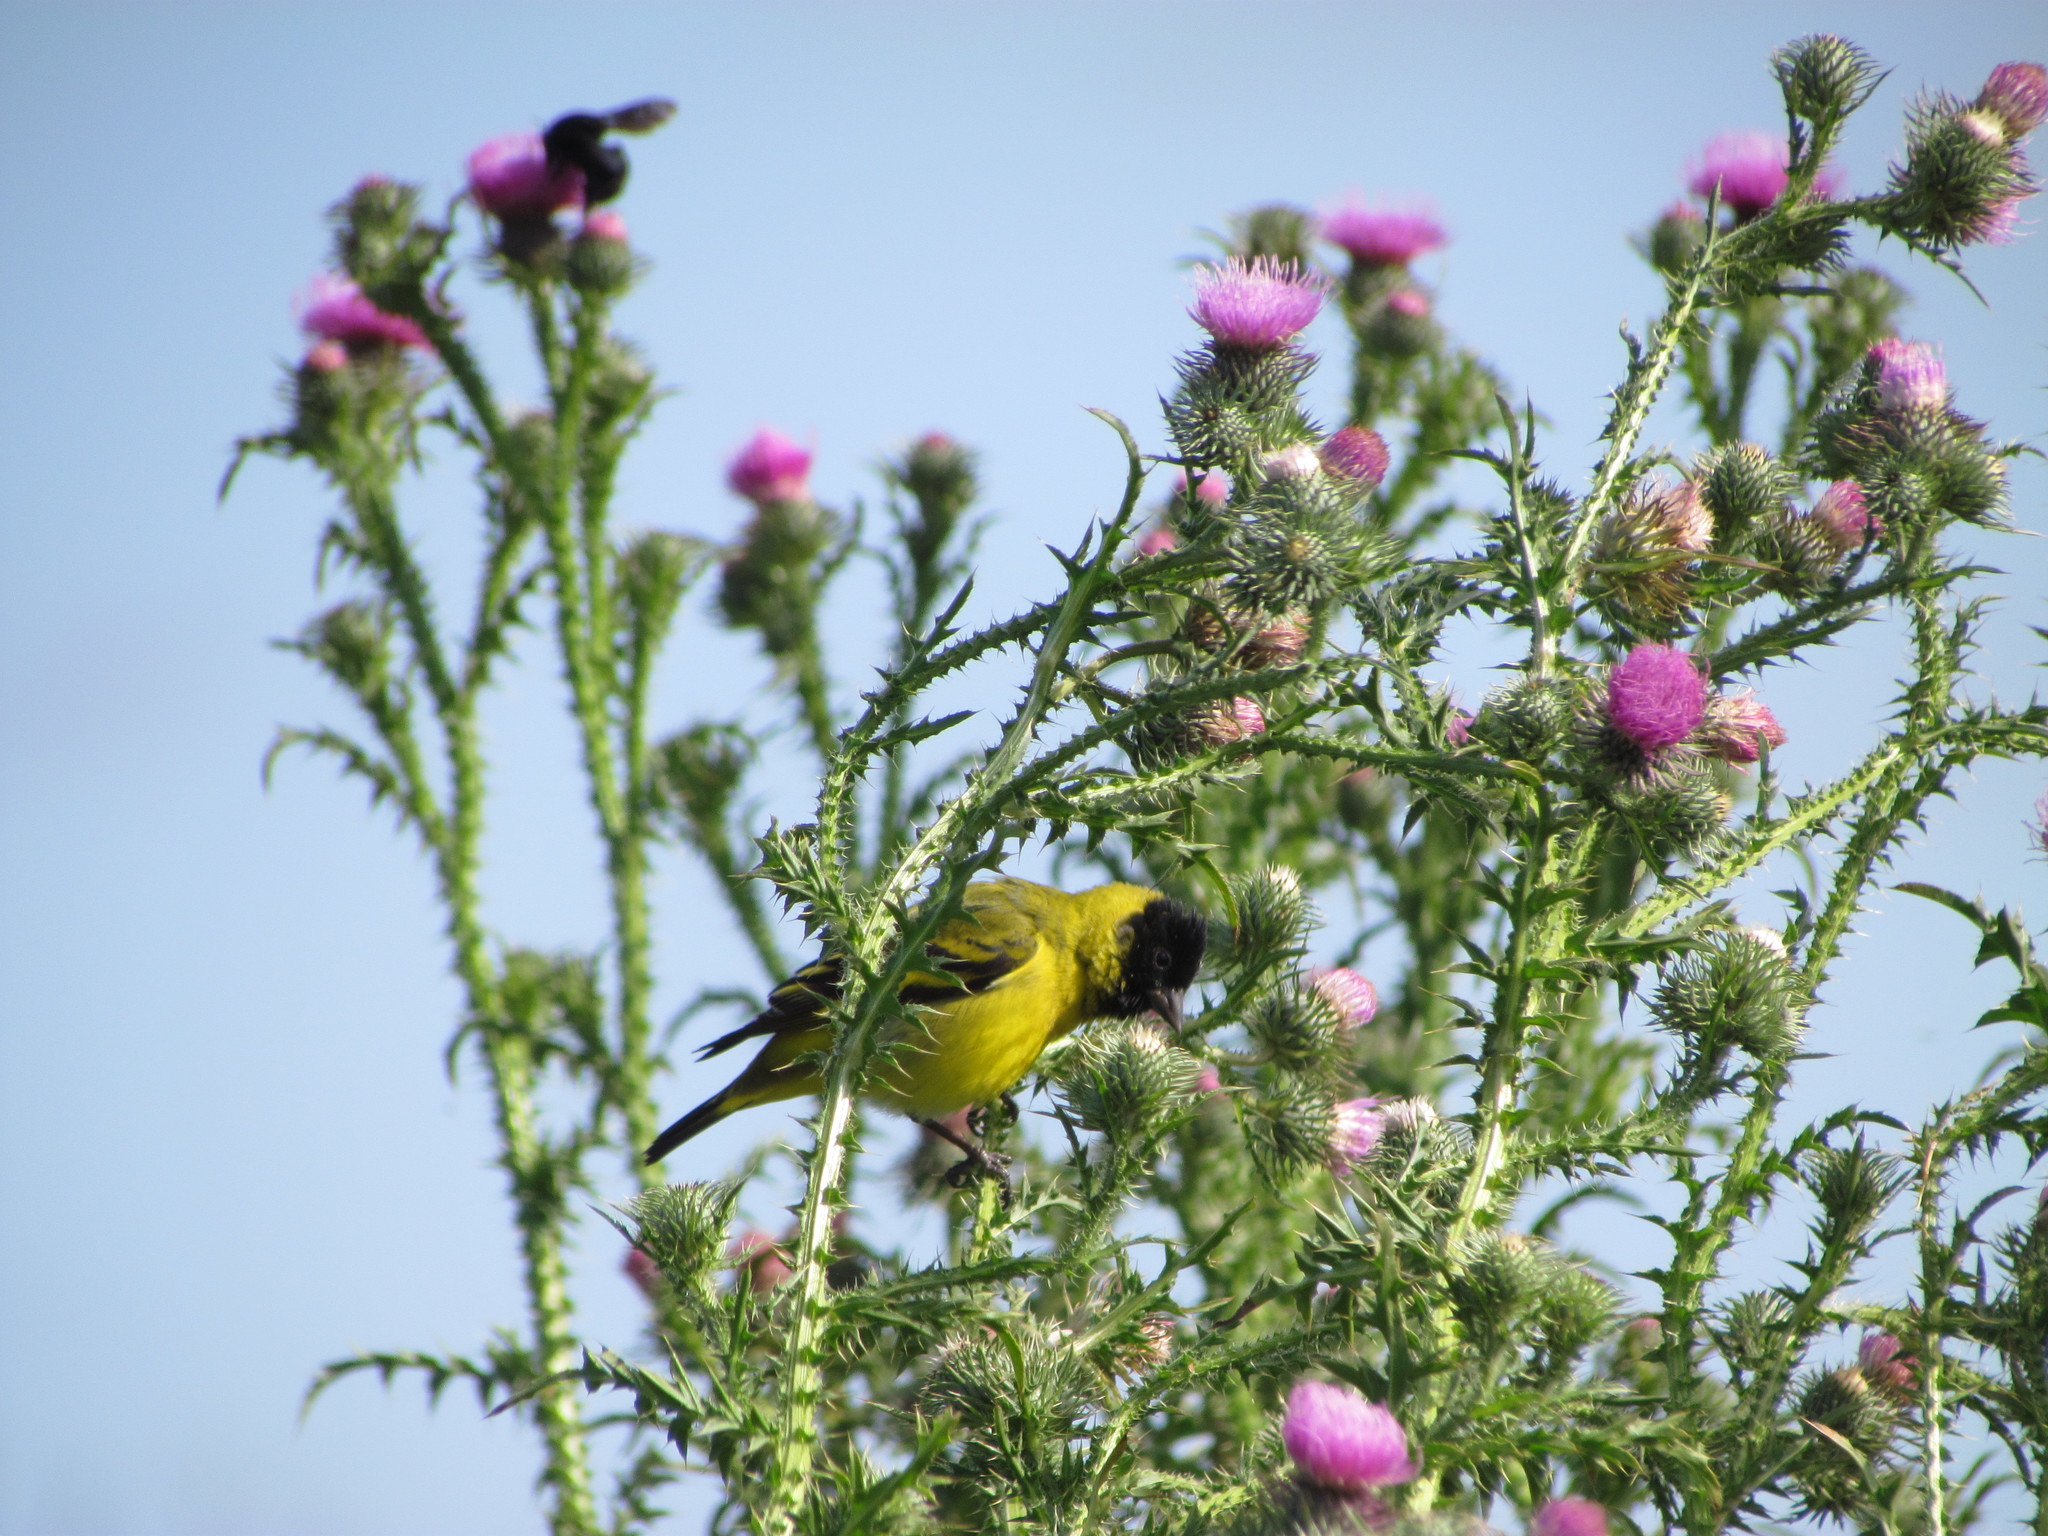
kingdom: Animalia
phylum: Chordata
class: Aves
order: Passeriformes
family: Fringillidae
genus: Spinus
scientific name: Spinus magellanicus
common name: Hooded siskin
